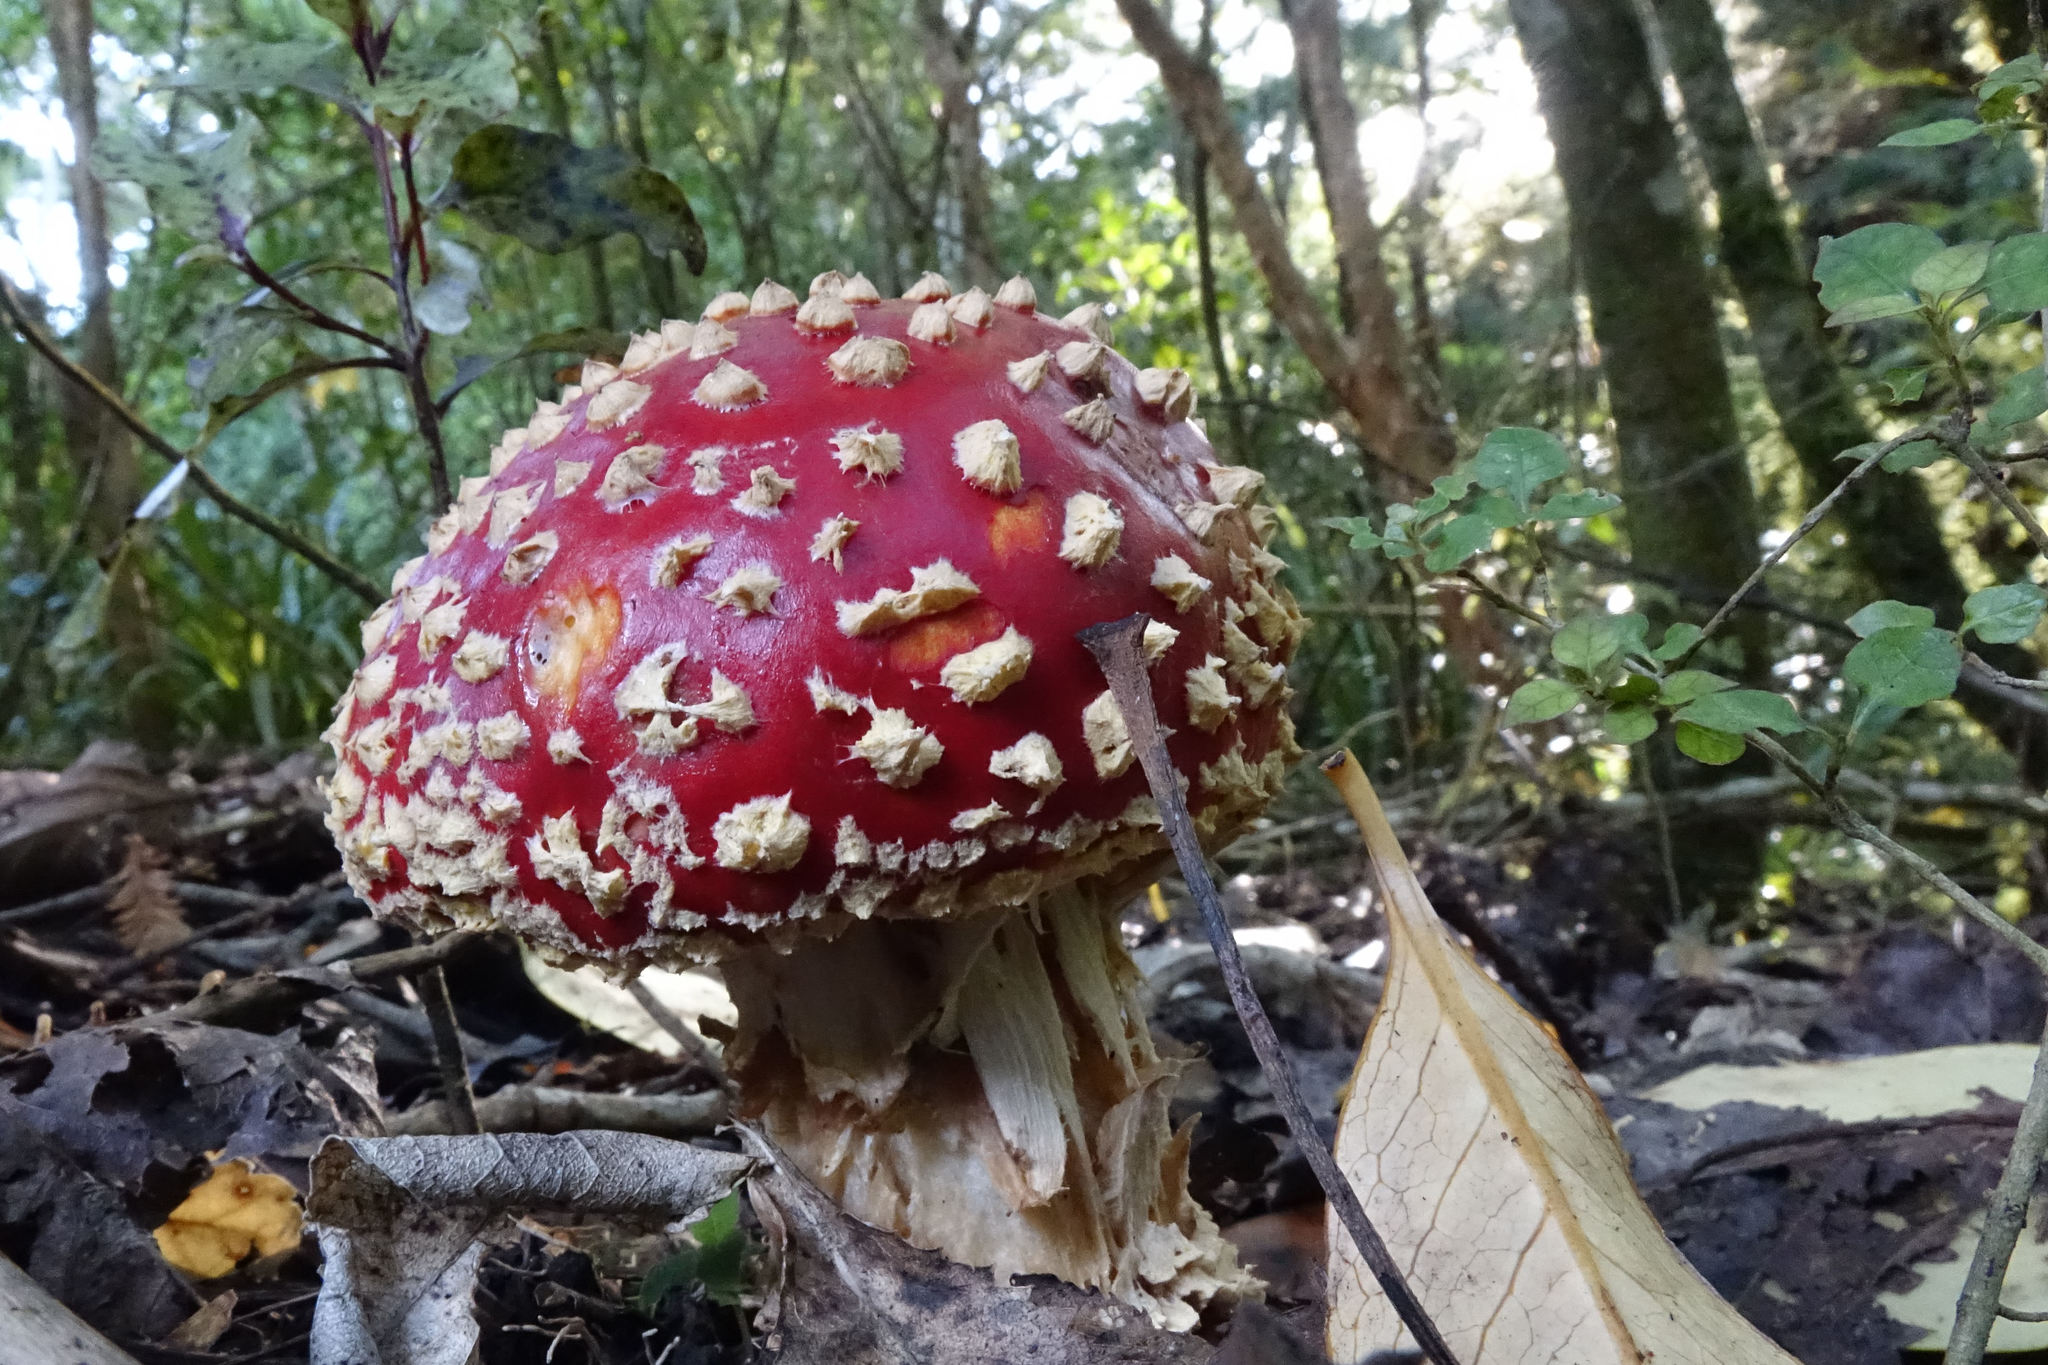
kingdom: Fungi
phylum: Basidiomycota
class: Agaricomycetes
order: Agaricales
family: Amanitaceae
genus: Amanita
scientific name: Amanita muscaria
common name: Fly agaric
